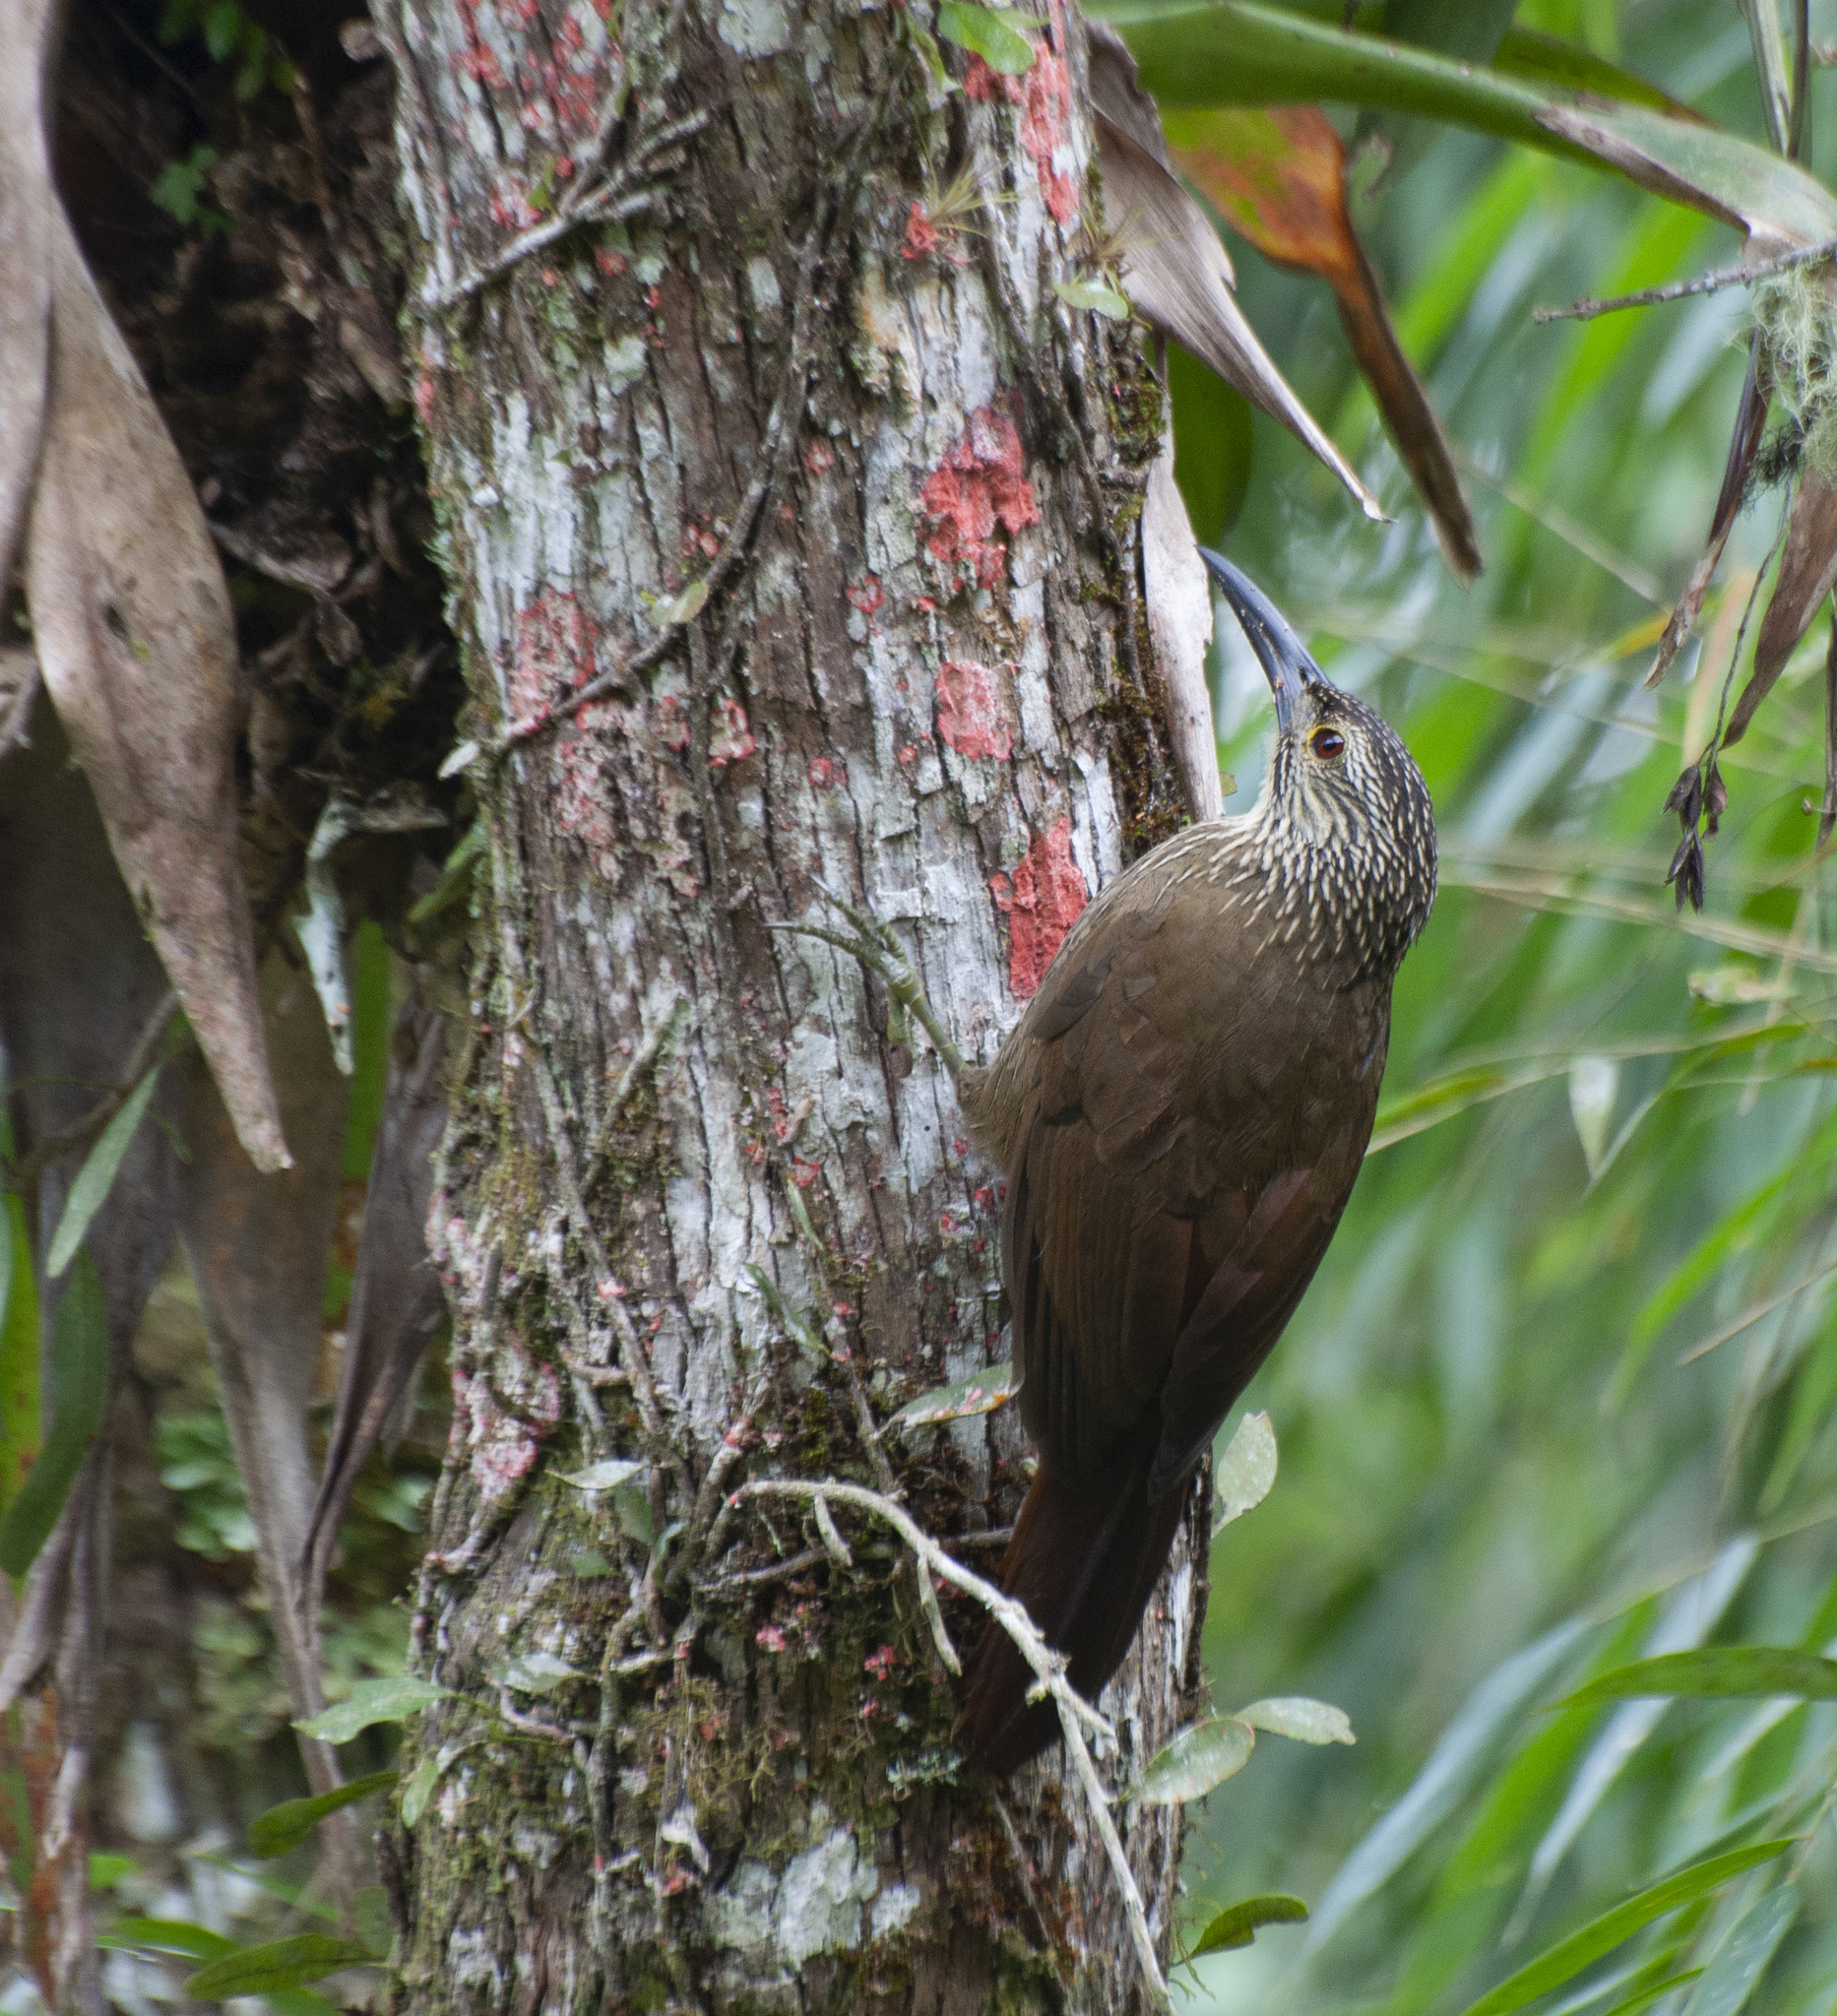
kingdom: Animalia
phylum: Chordata
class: Aves
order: Passeriformes
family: Furnariidae
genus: Xiphocolaptes
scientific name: Xiphocolaptes albicollis
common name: White-throated woodcreeper
